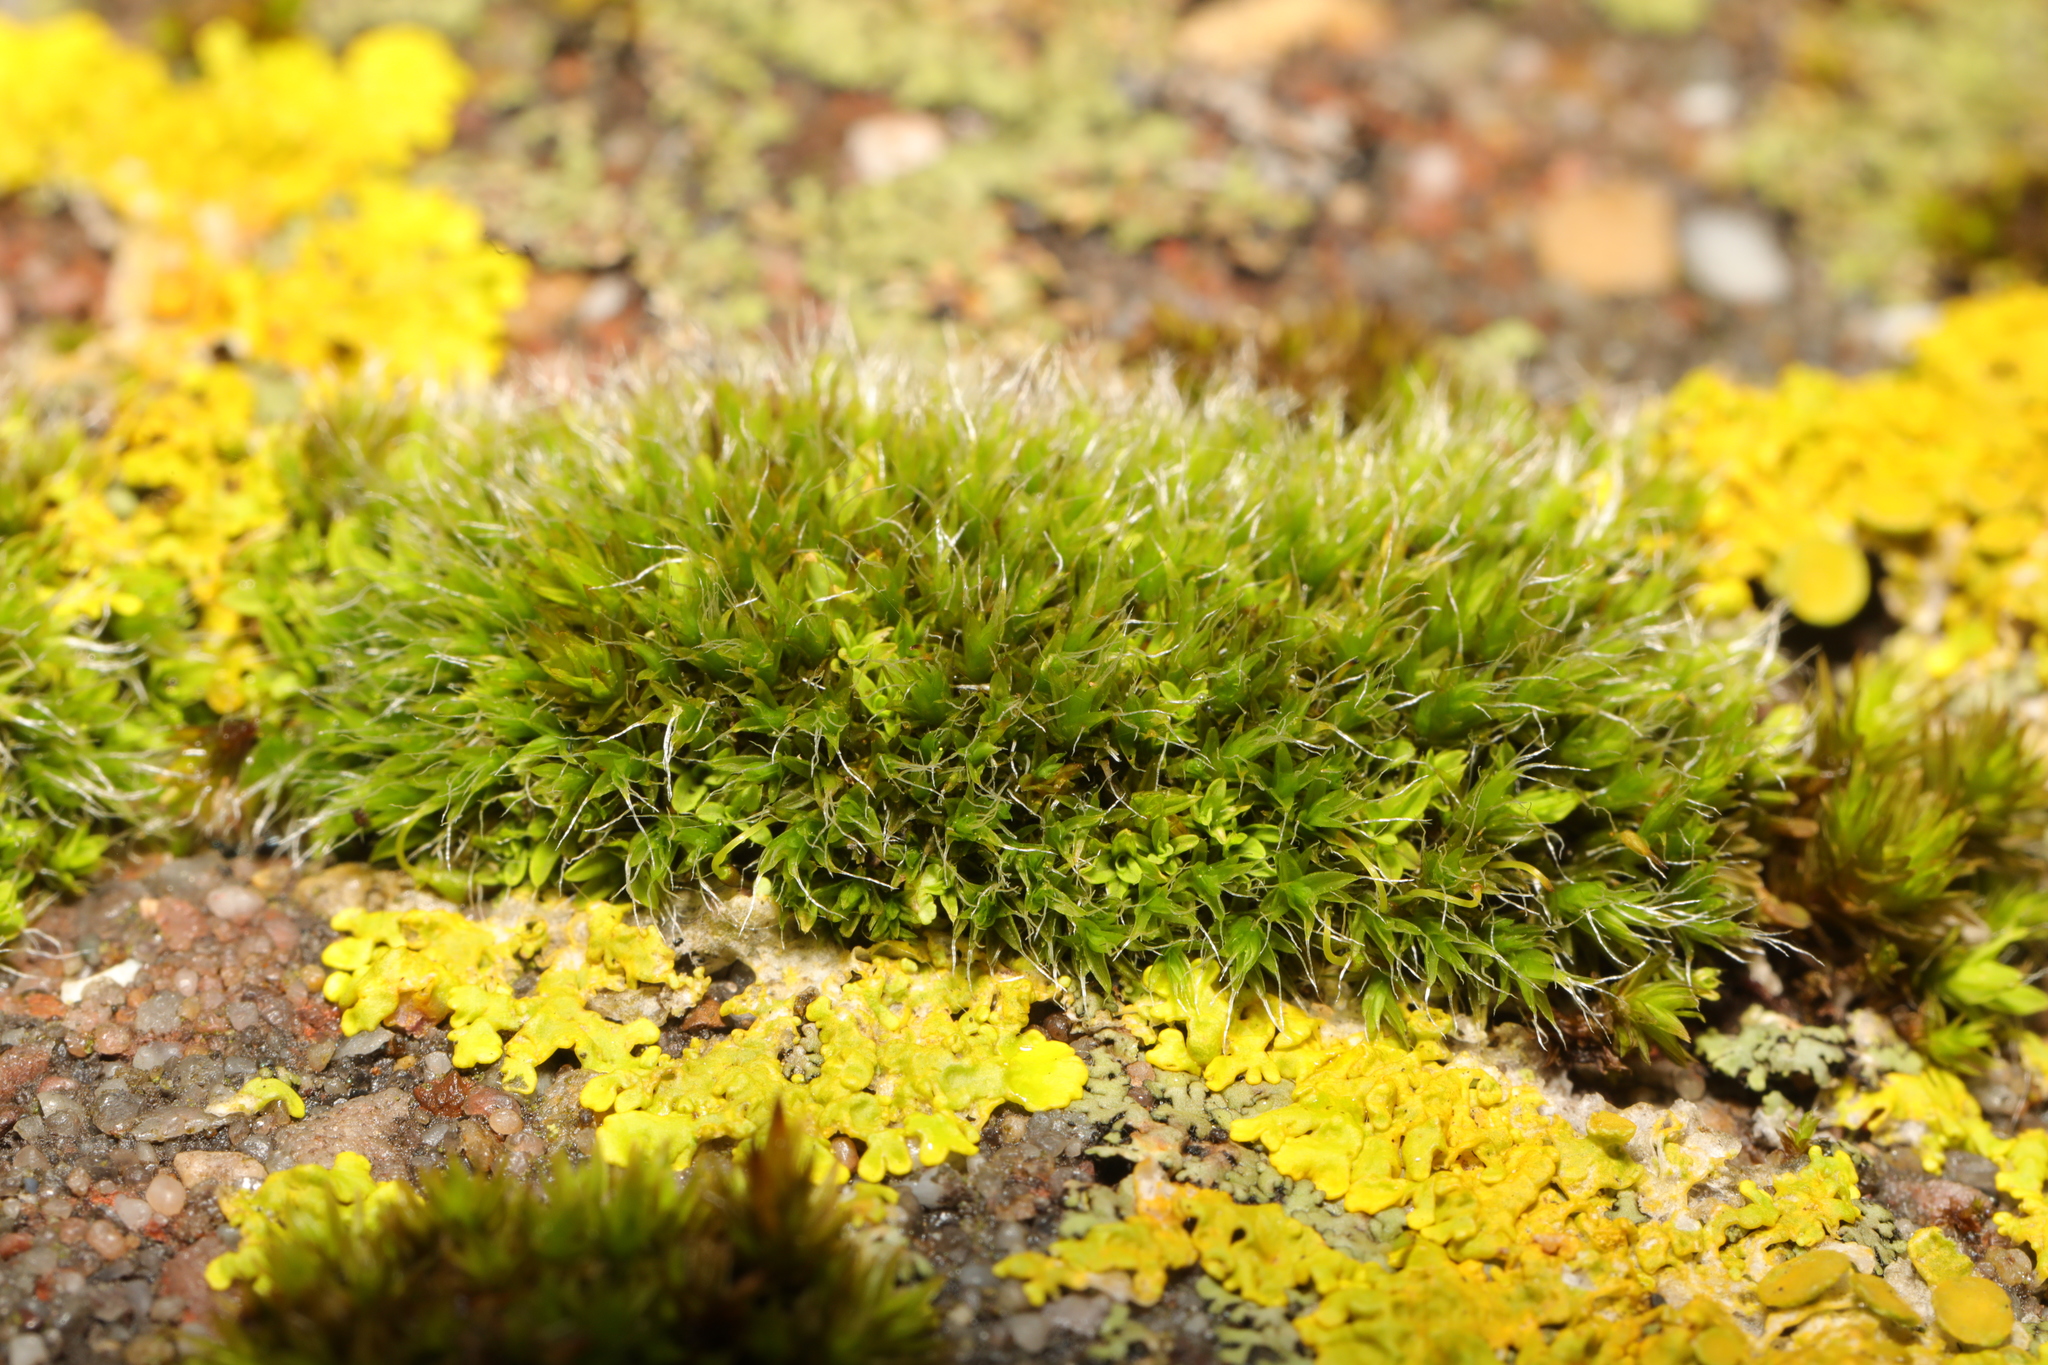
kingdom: Plantae
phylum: Bryophyta
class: Bryopsida
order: Grimmiales
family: Grimmiaceae
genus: Grimmia
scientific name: Grimmia pulvinata
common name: Grey-cushioned grimmia
